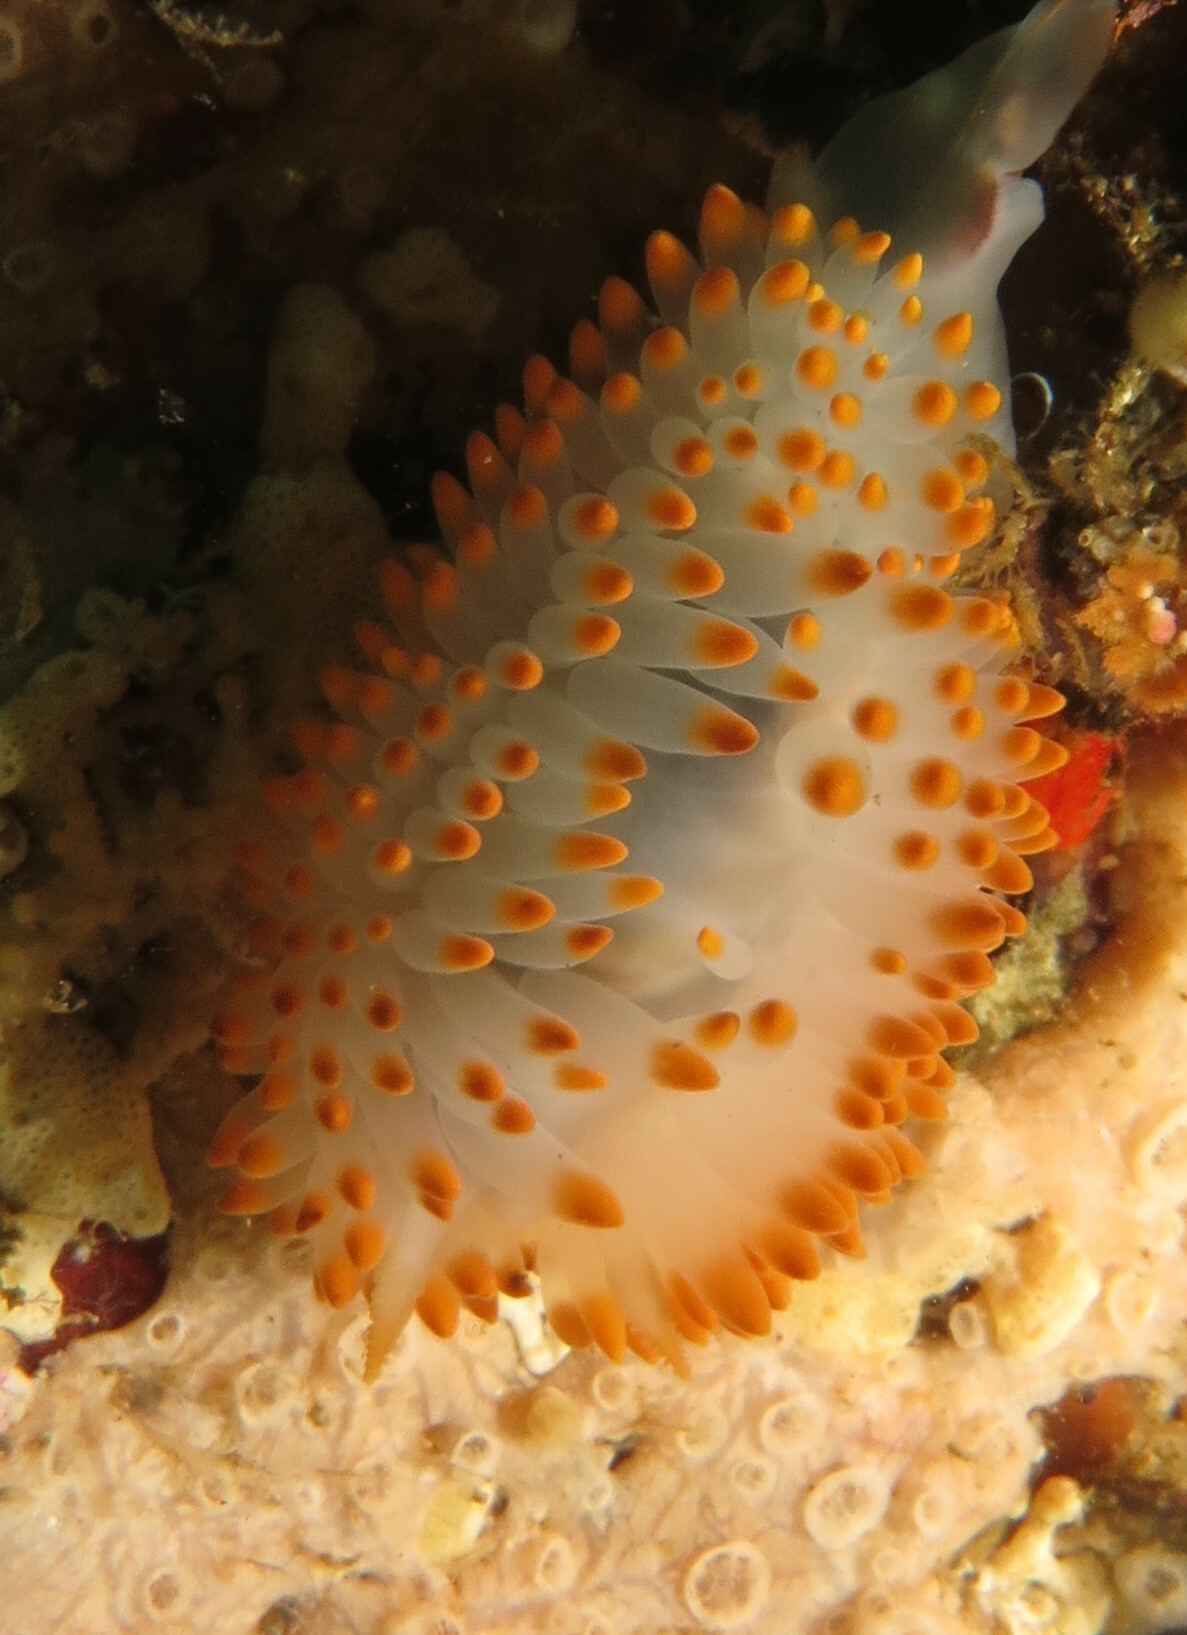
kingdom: Animalia
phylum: Mollusca
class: Gastropoda
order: Nudibranchia
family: Janolidae
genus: Bonisa
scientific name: Bonisa nakaza
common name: Gas flame nudibranch
